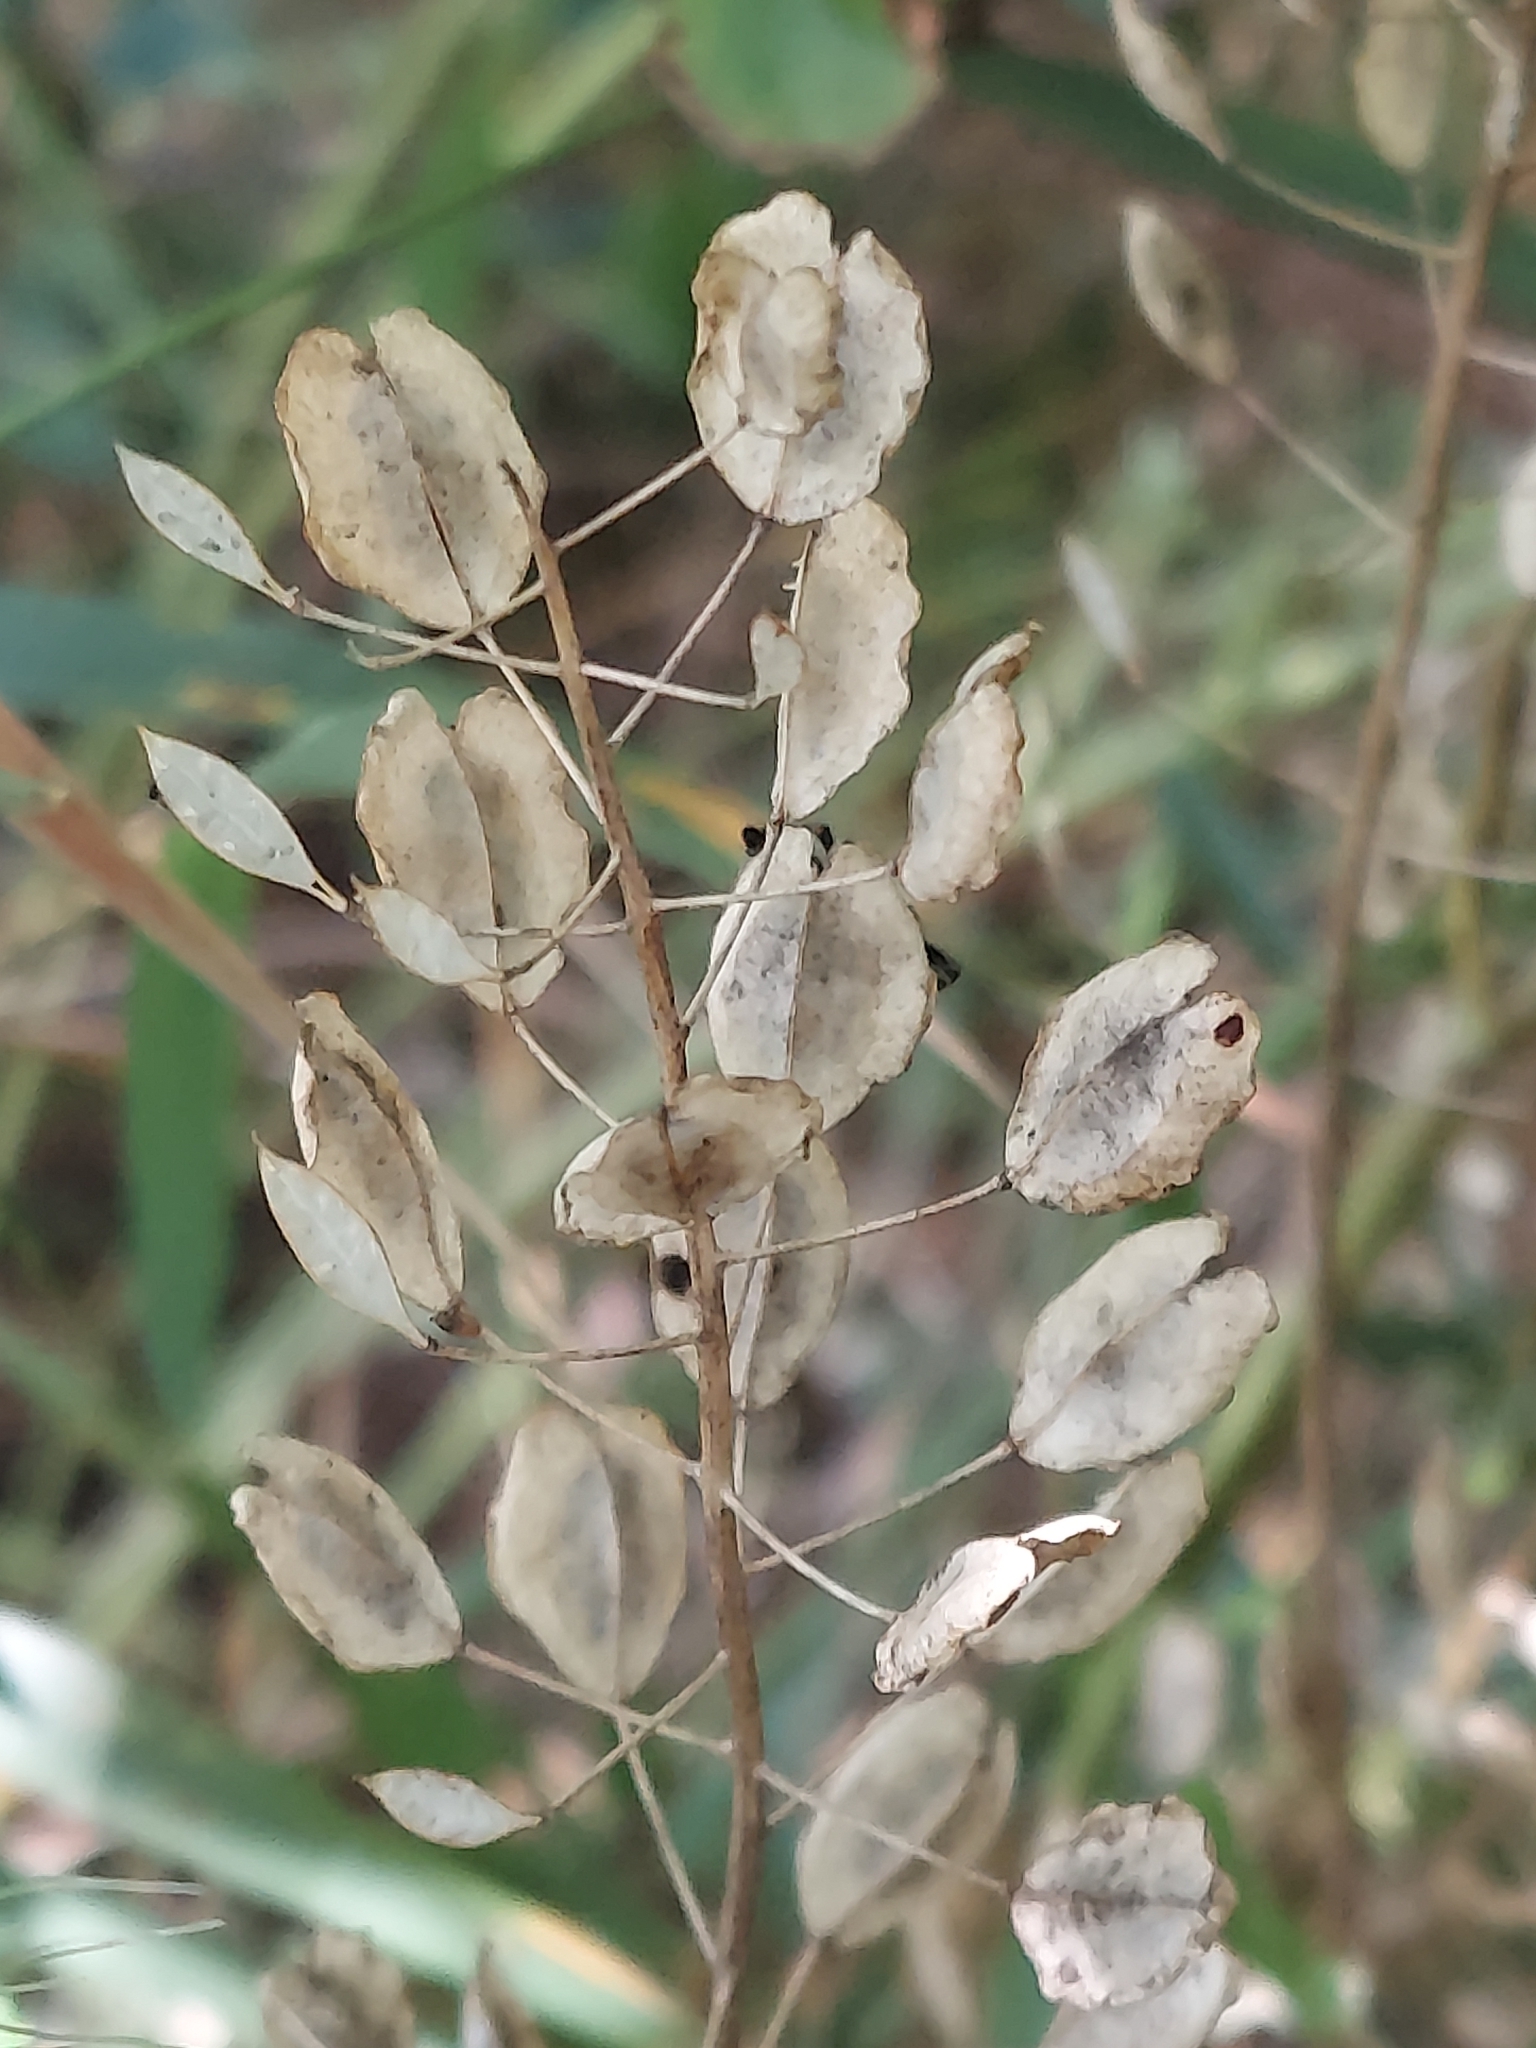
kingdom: Plantae
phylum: Tracheophyta
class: Magnoliopsida
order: Brassicales
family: Brassicaceae
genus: Thlaspi
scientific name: Thlaspi arvense
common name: Field pennycress
